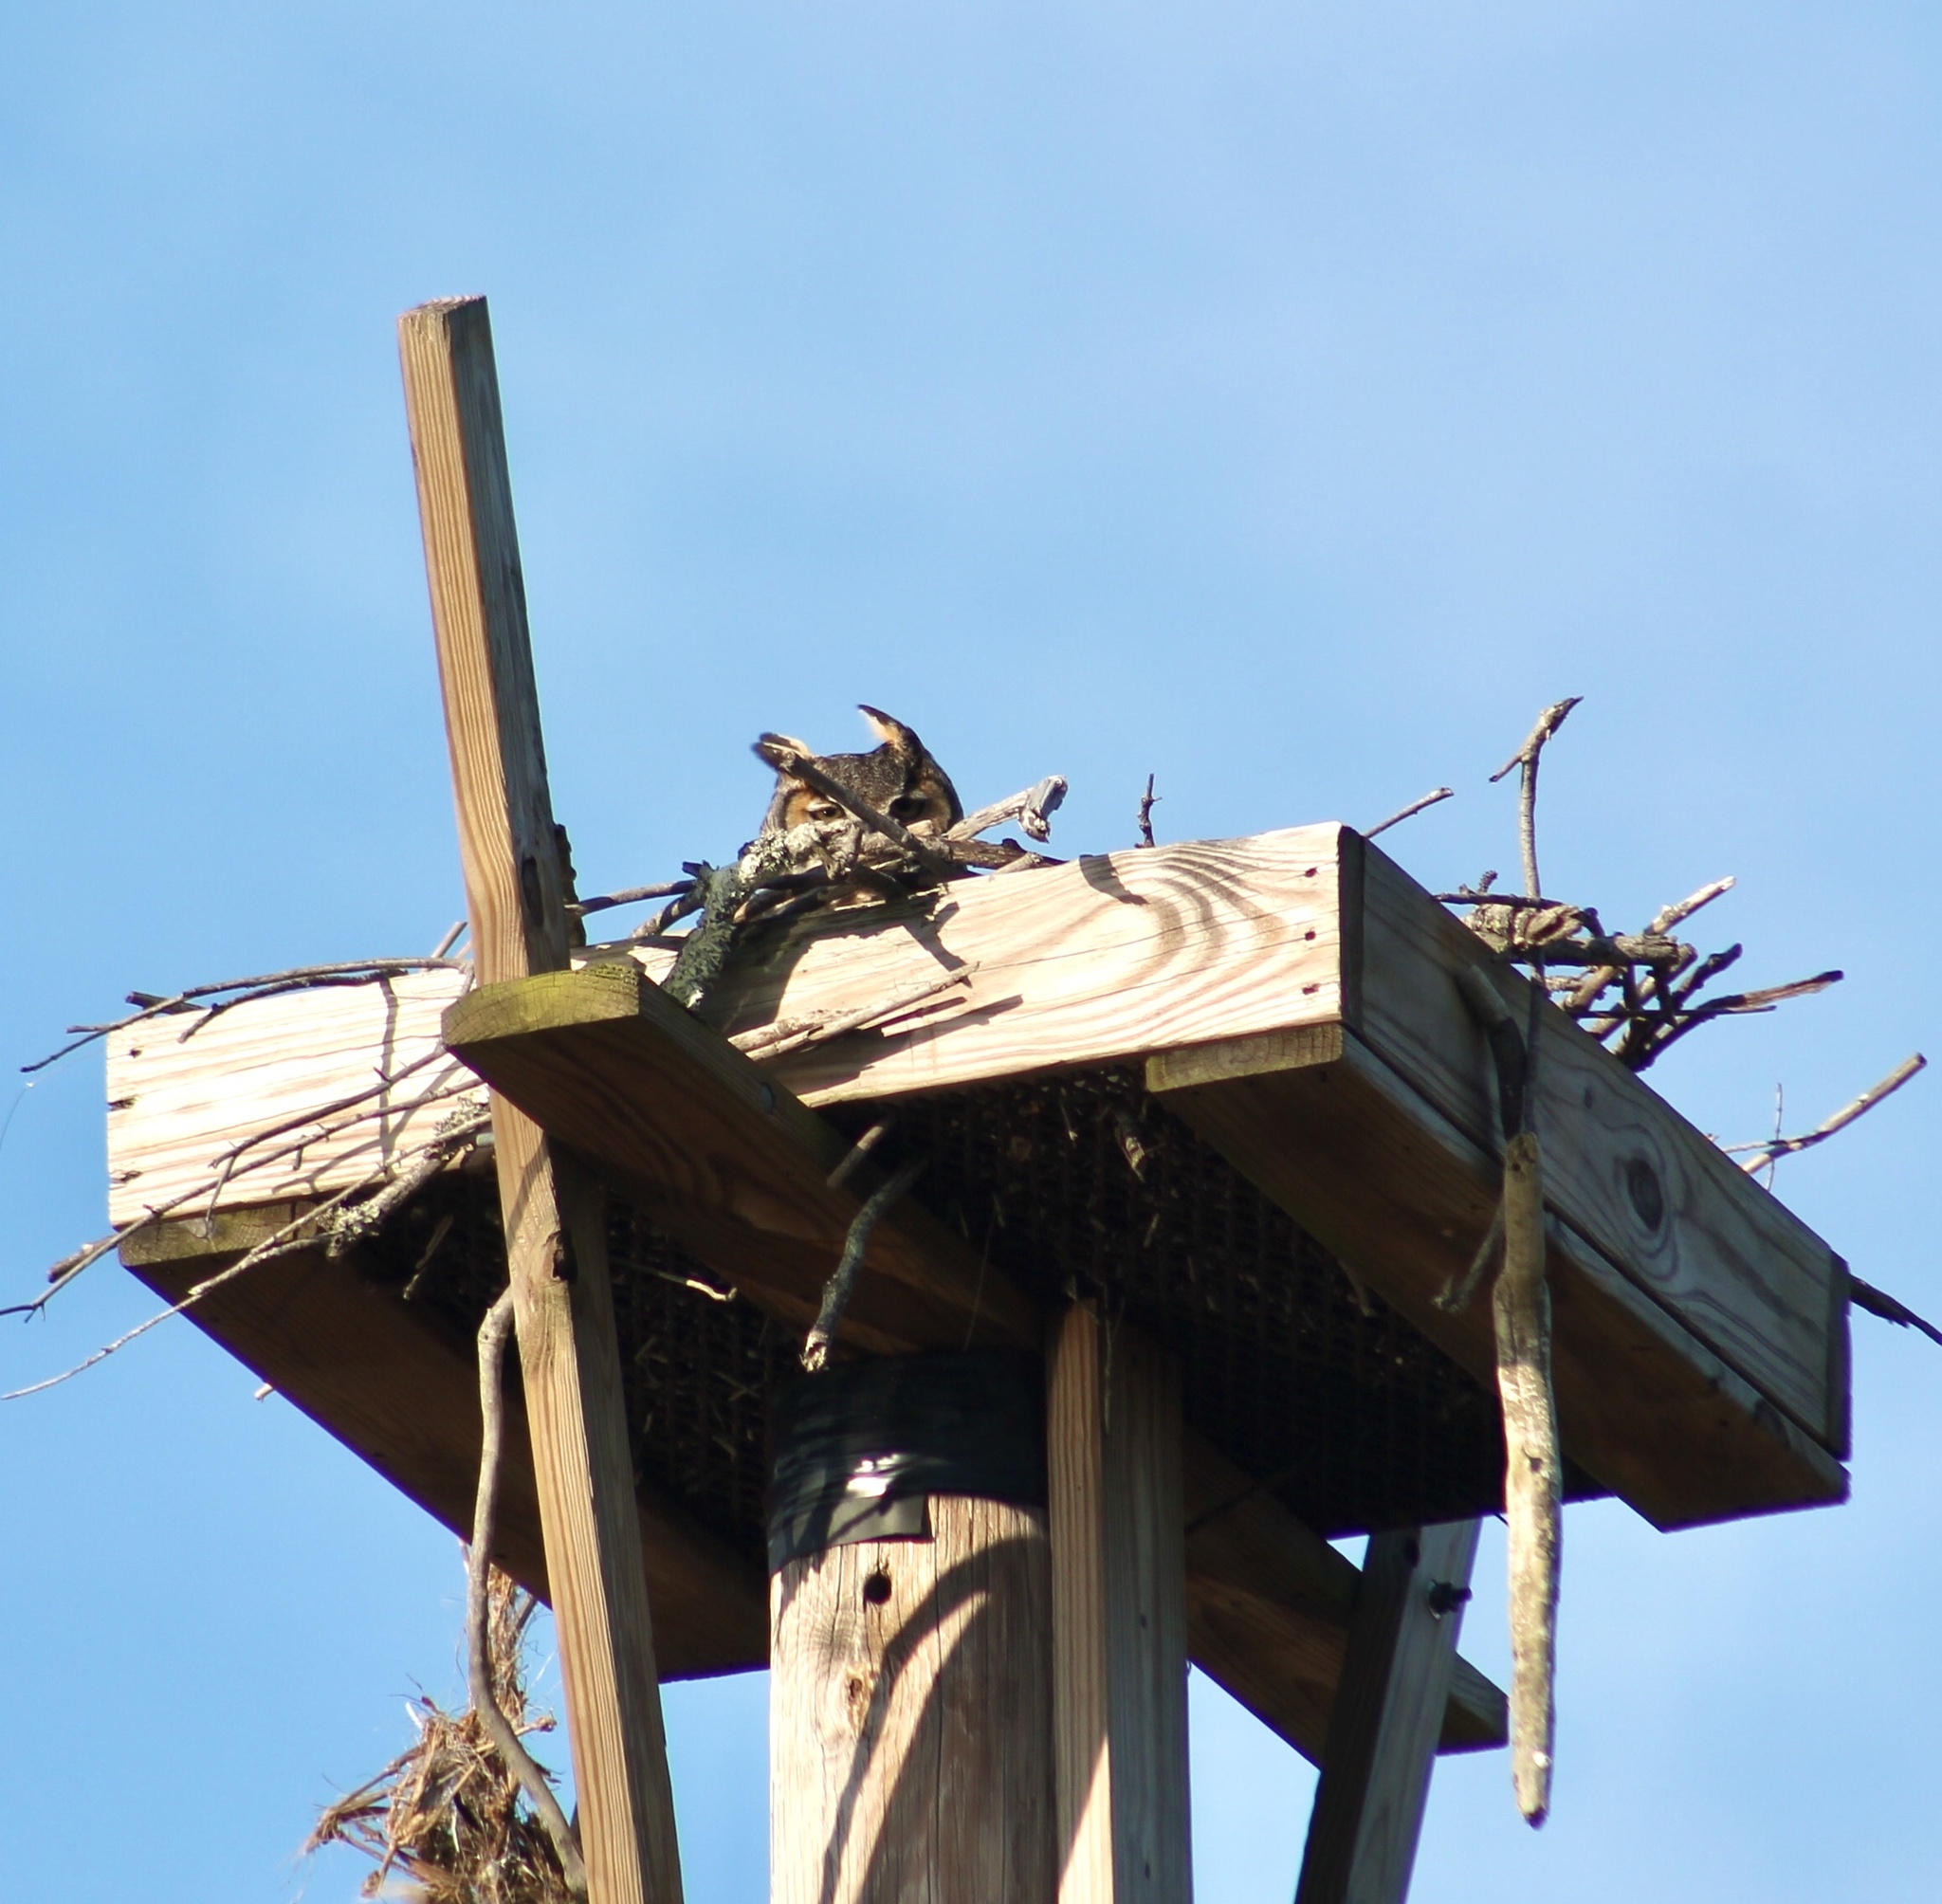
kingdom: Animalia
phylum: Chordata
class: Aves
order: Strigiformes
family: Strigidae
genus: Bubo
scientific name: Bubo virginianus
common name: Great horned owl
